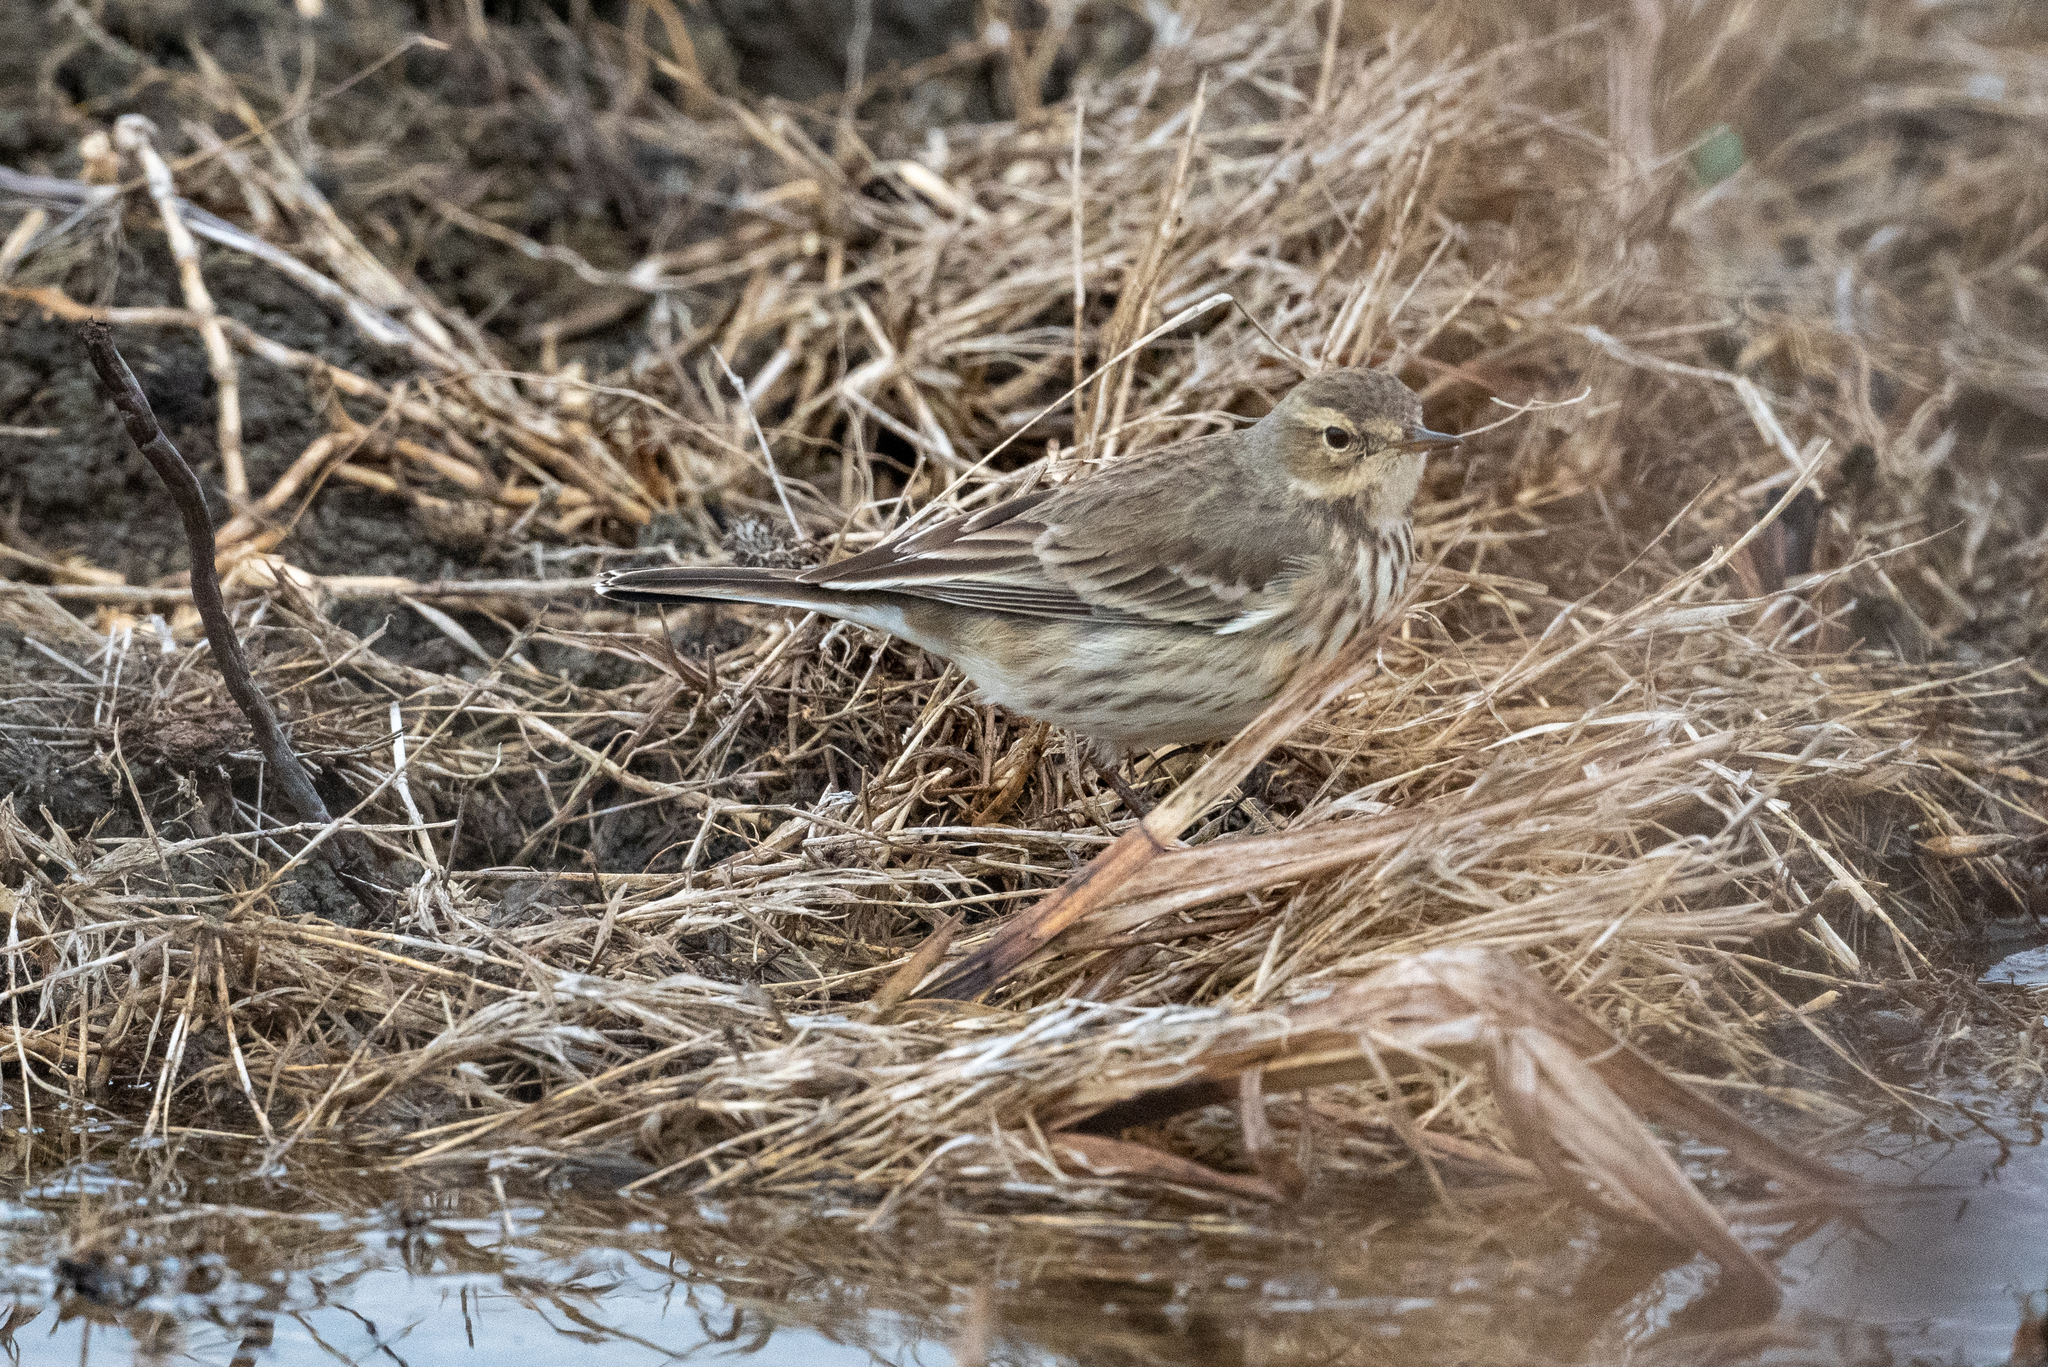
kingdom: Animalia
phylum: Chordata
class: Aves
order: Passeriformes
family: Motacillidae
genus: Anthus
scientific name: Anthus rubescens
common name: Buff-bellied pipit
